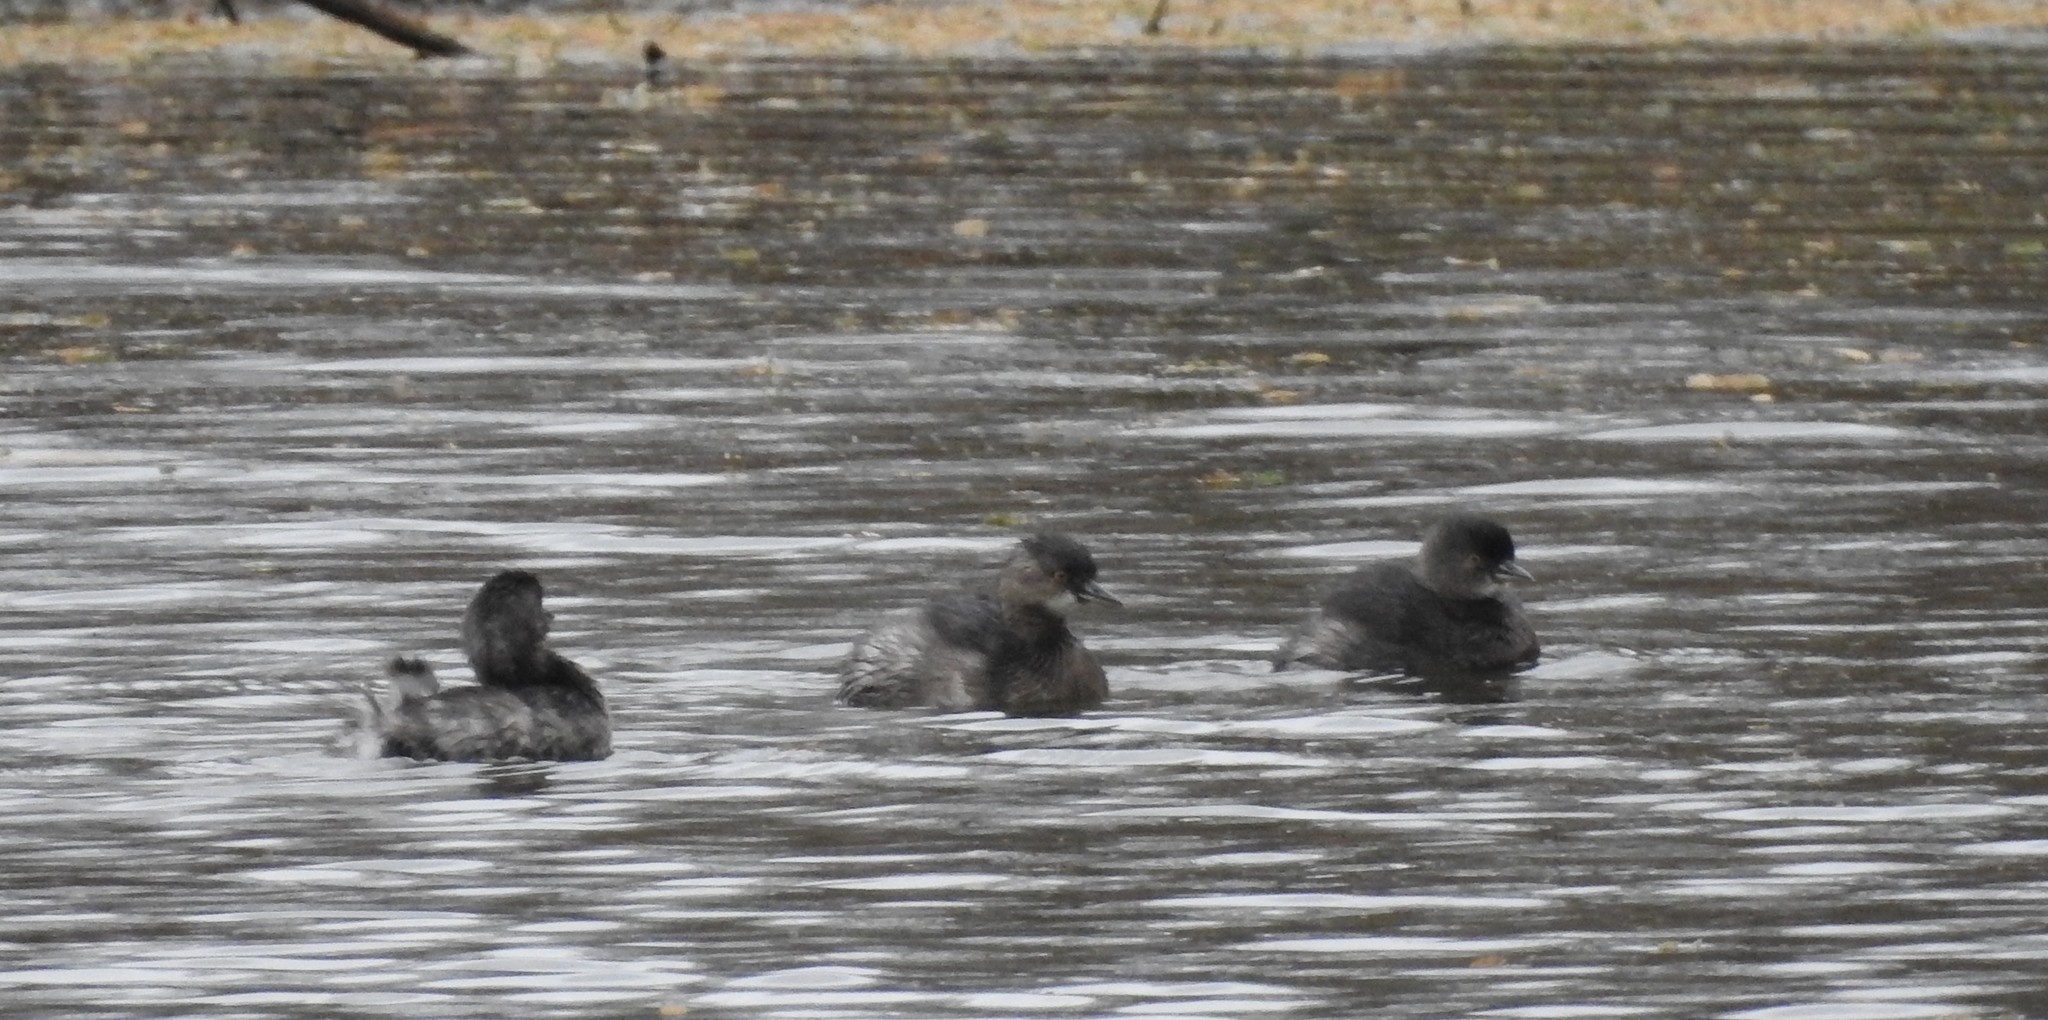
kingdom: Animalia
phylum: Chordata
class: Aves
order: Podicipediformes
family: Podicipedidae
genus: Tachybaptus
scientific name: Tachybaptus dominicus
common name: Least grebe
